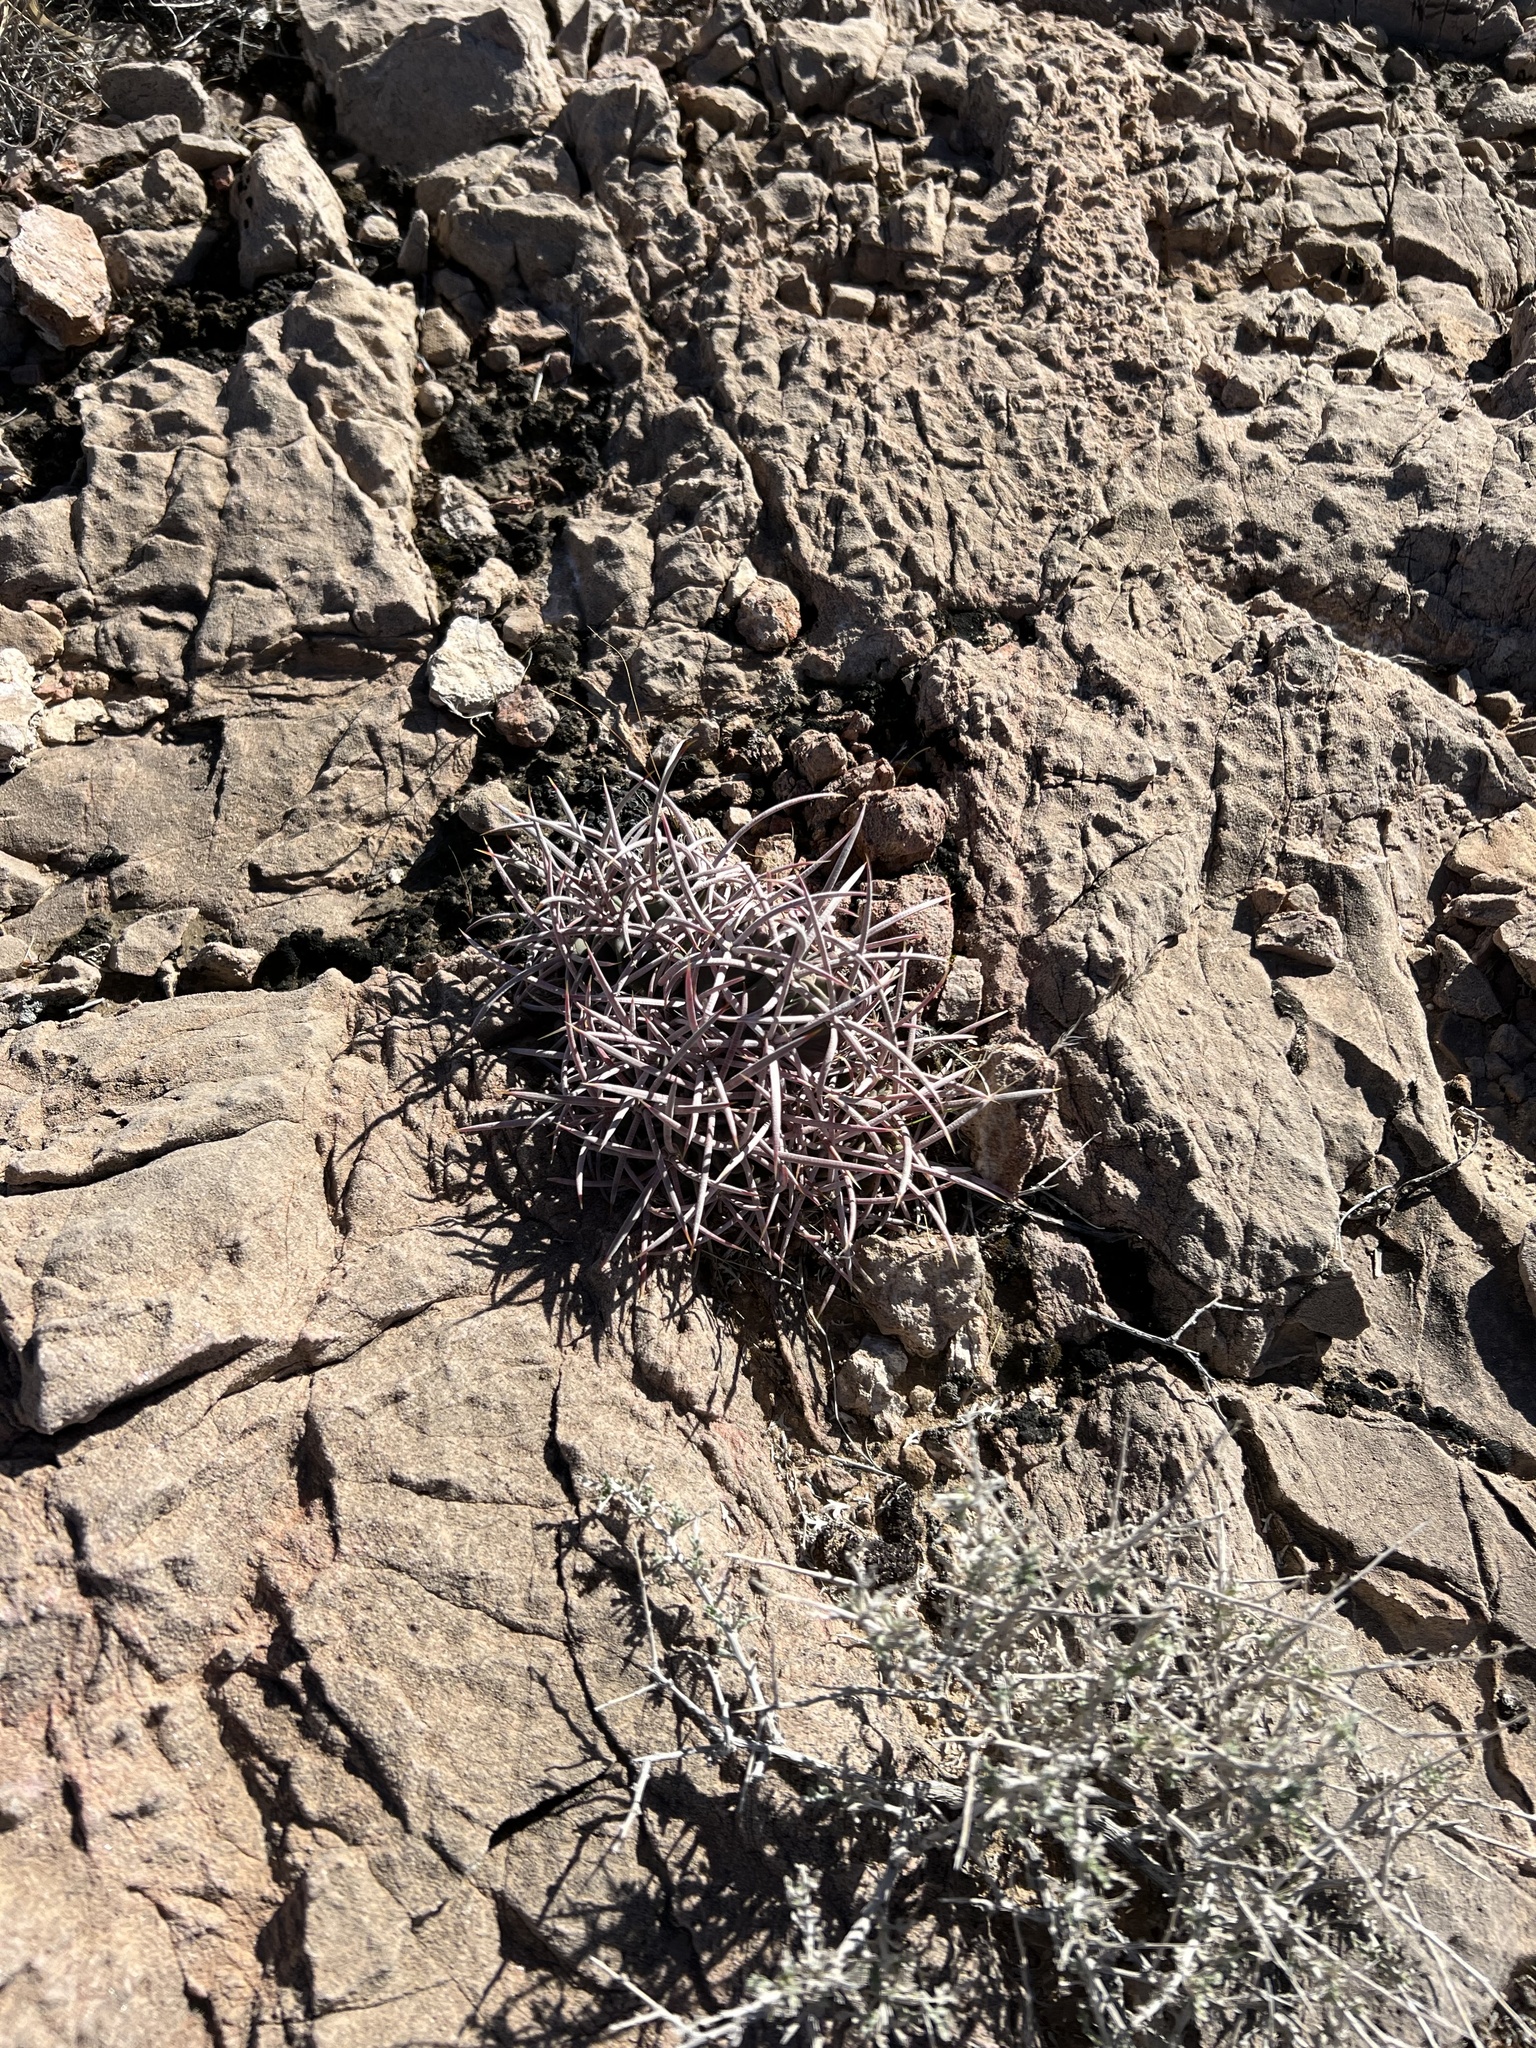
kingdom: Plantae
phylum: Tracheophyta
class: Magnoliopsida
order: Caryophyllales
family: Cactaceae
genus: Echinocactus
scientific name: Echinocactus polycephalus
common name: Cottontop cactus
